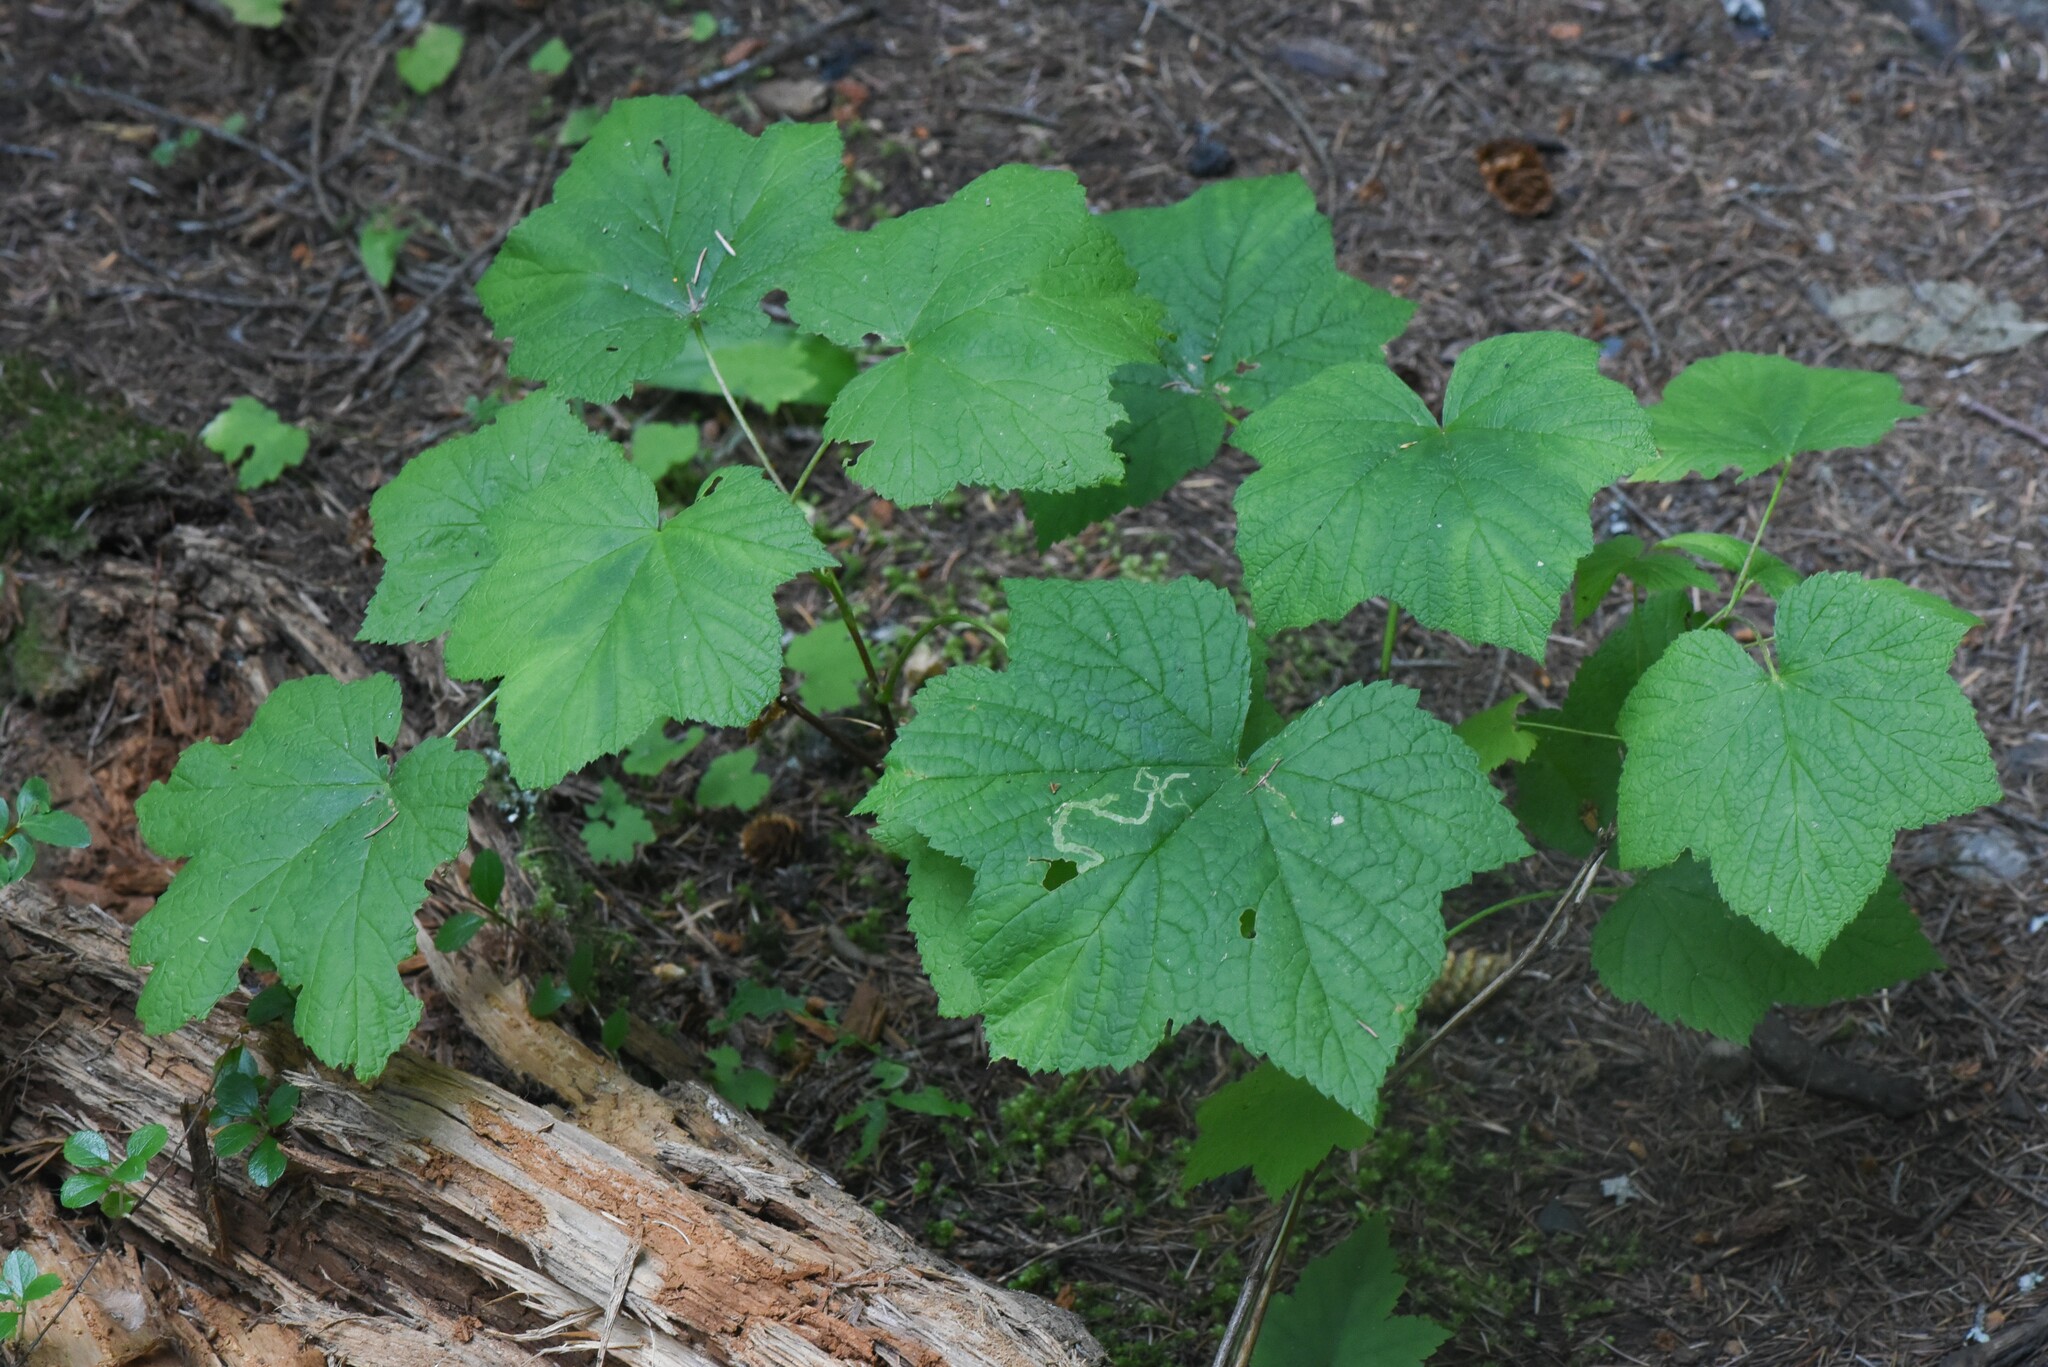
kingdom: Plantae
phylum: Tracheophyta
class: Magnoliopsida
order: Rosales
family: Rosaceae
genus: Rubus
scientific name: Rubus parviflorus
